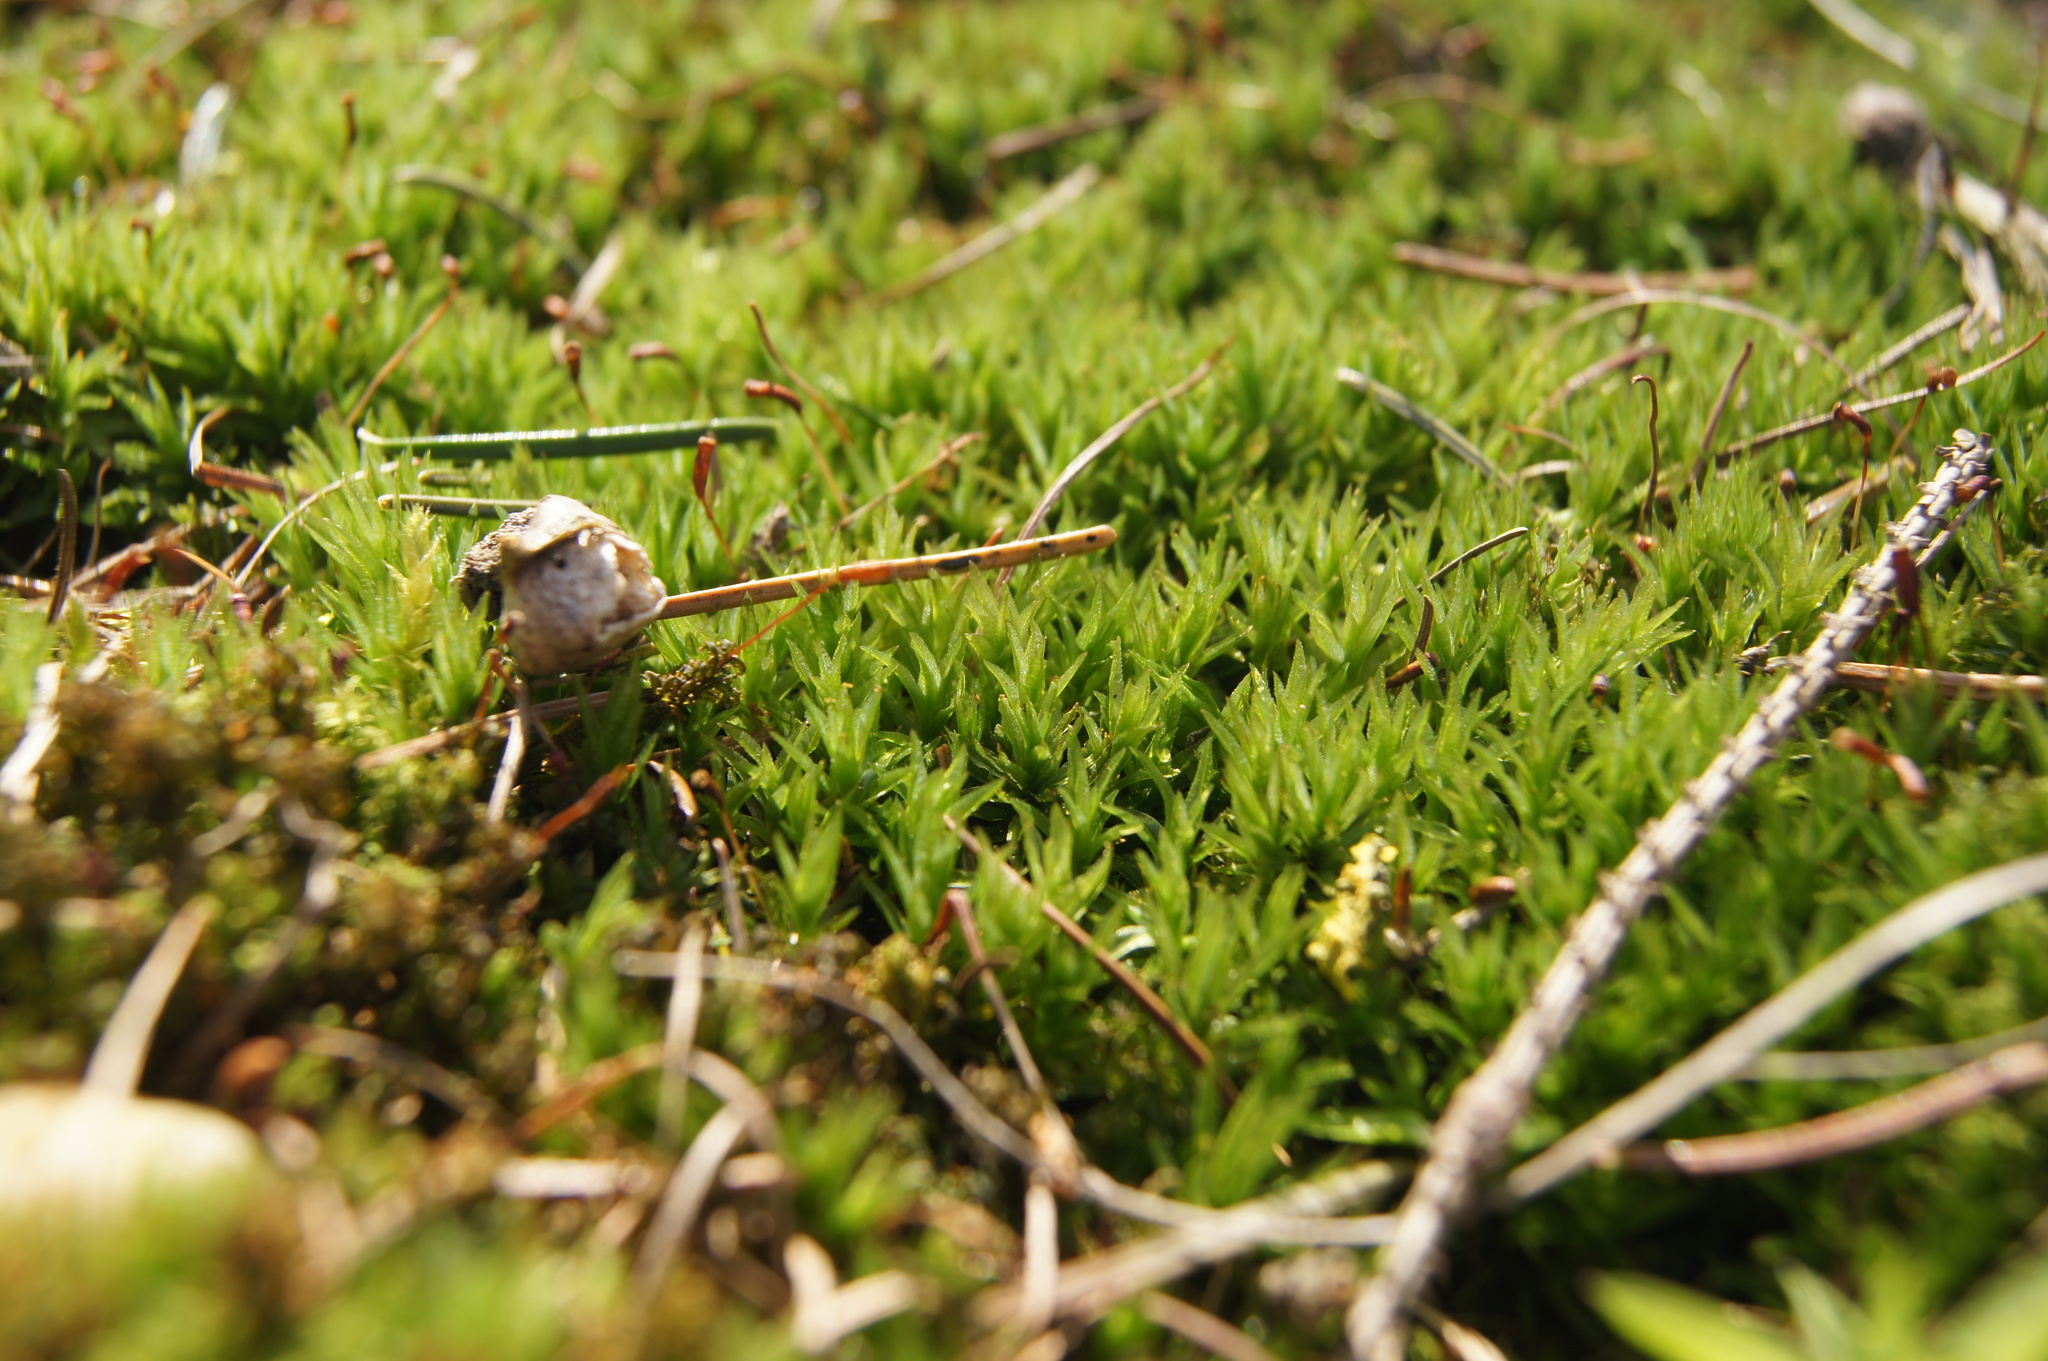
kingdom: Plantae
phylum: Bryophyta
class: Polytrichopsida
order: Polytrichales
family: Polytrichaceae
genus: Atrichum
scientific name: Atrichum undulatum
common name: Common smoothcap
